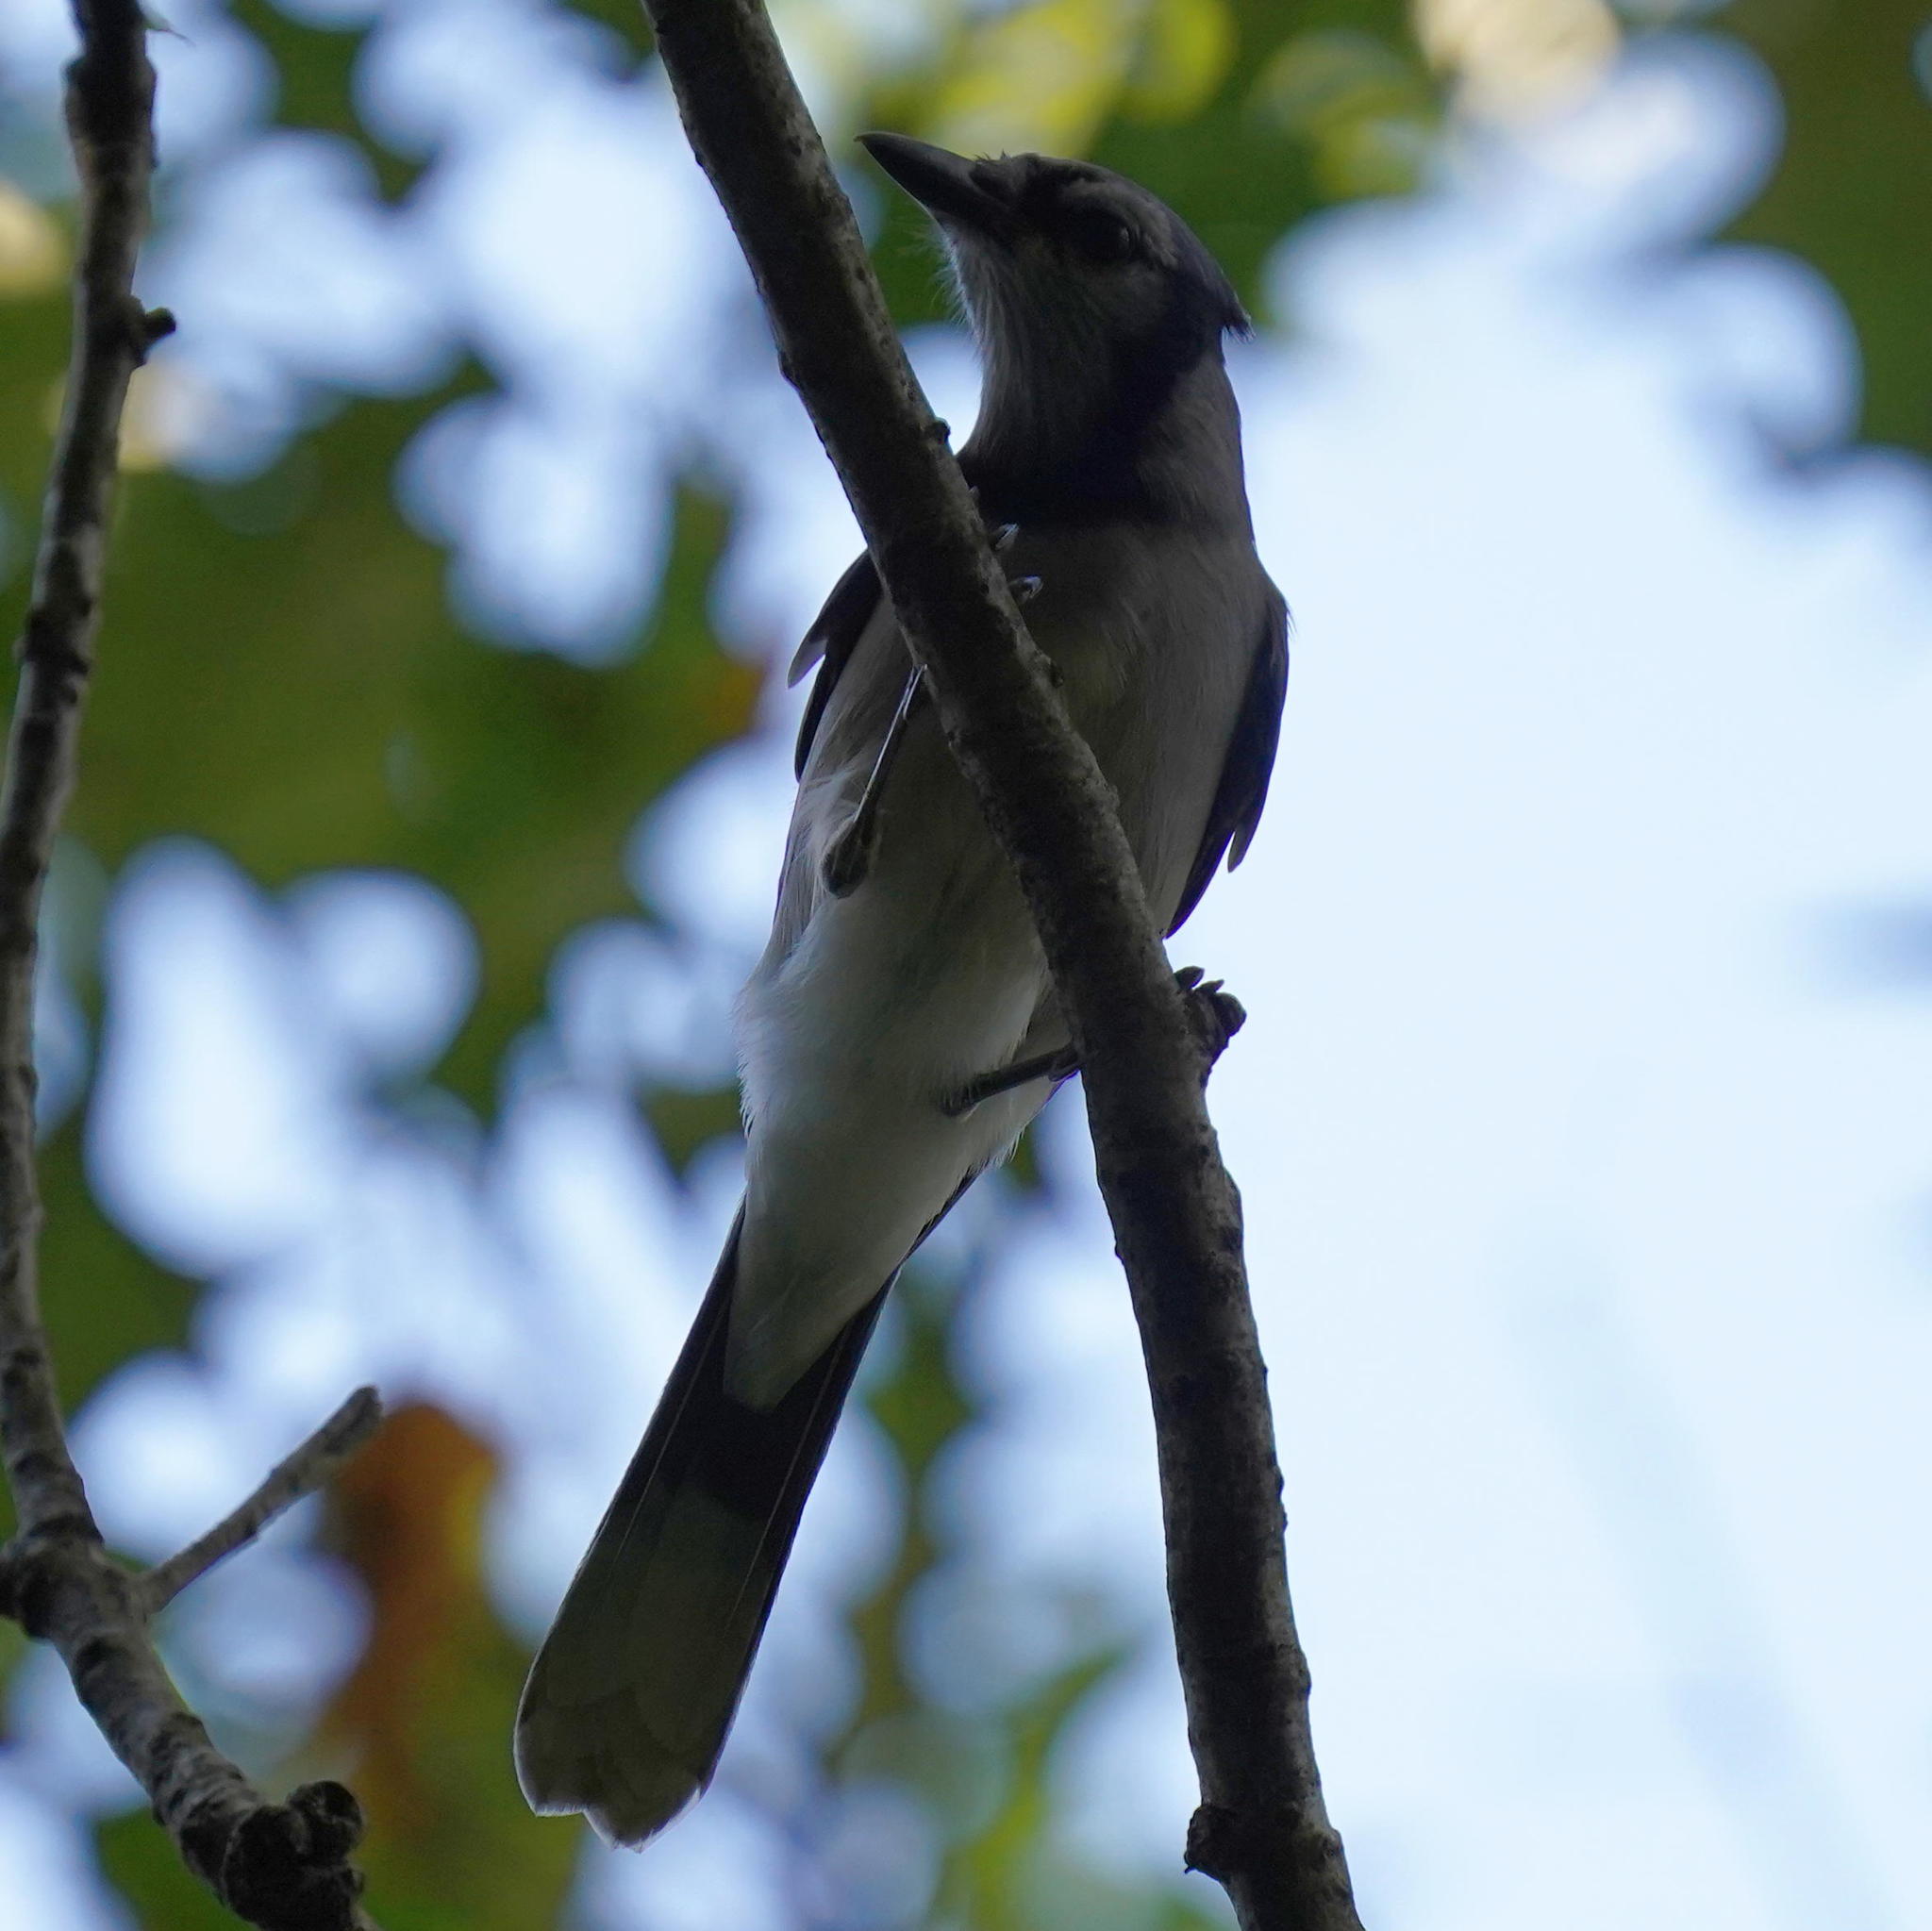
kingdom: Animalia
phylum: Chordata
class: Aves
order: Passeriformes
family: Corvidae
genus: Cyanocitta
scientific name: Cyanocitta cristata
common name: Blue jay
